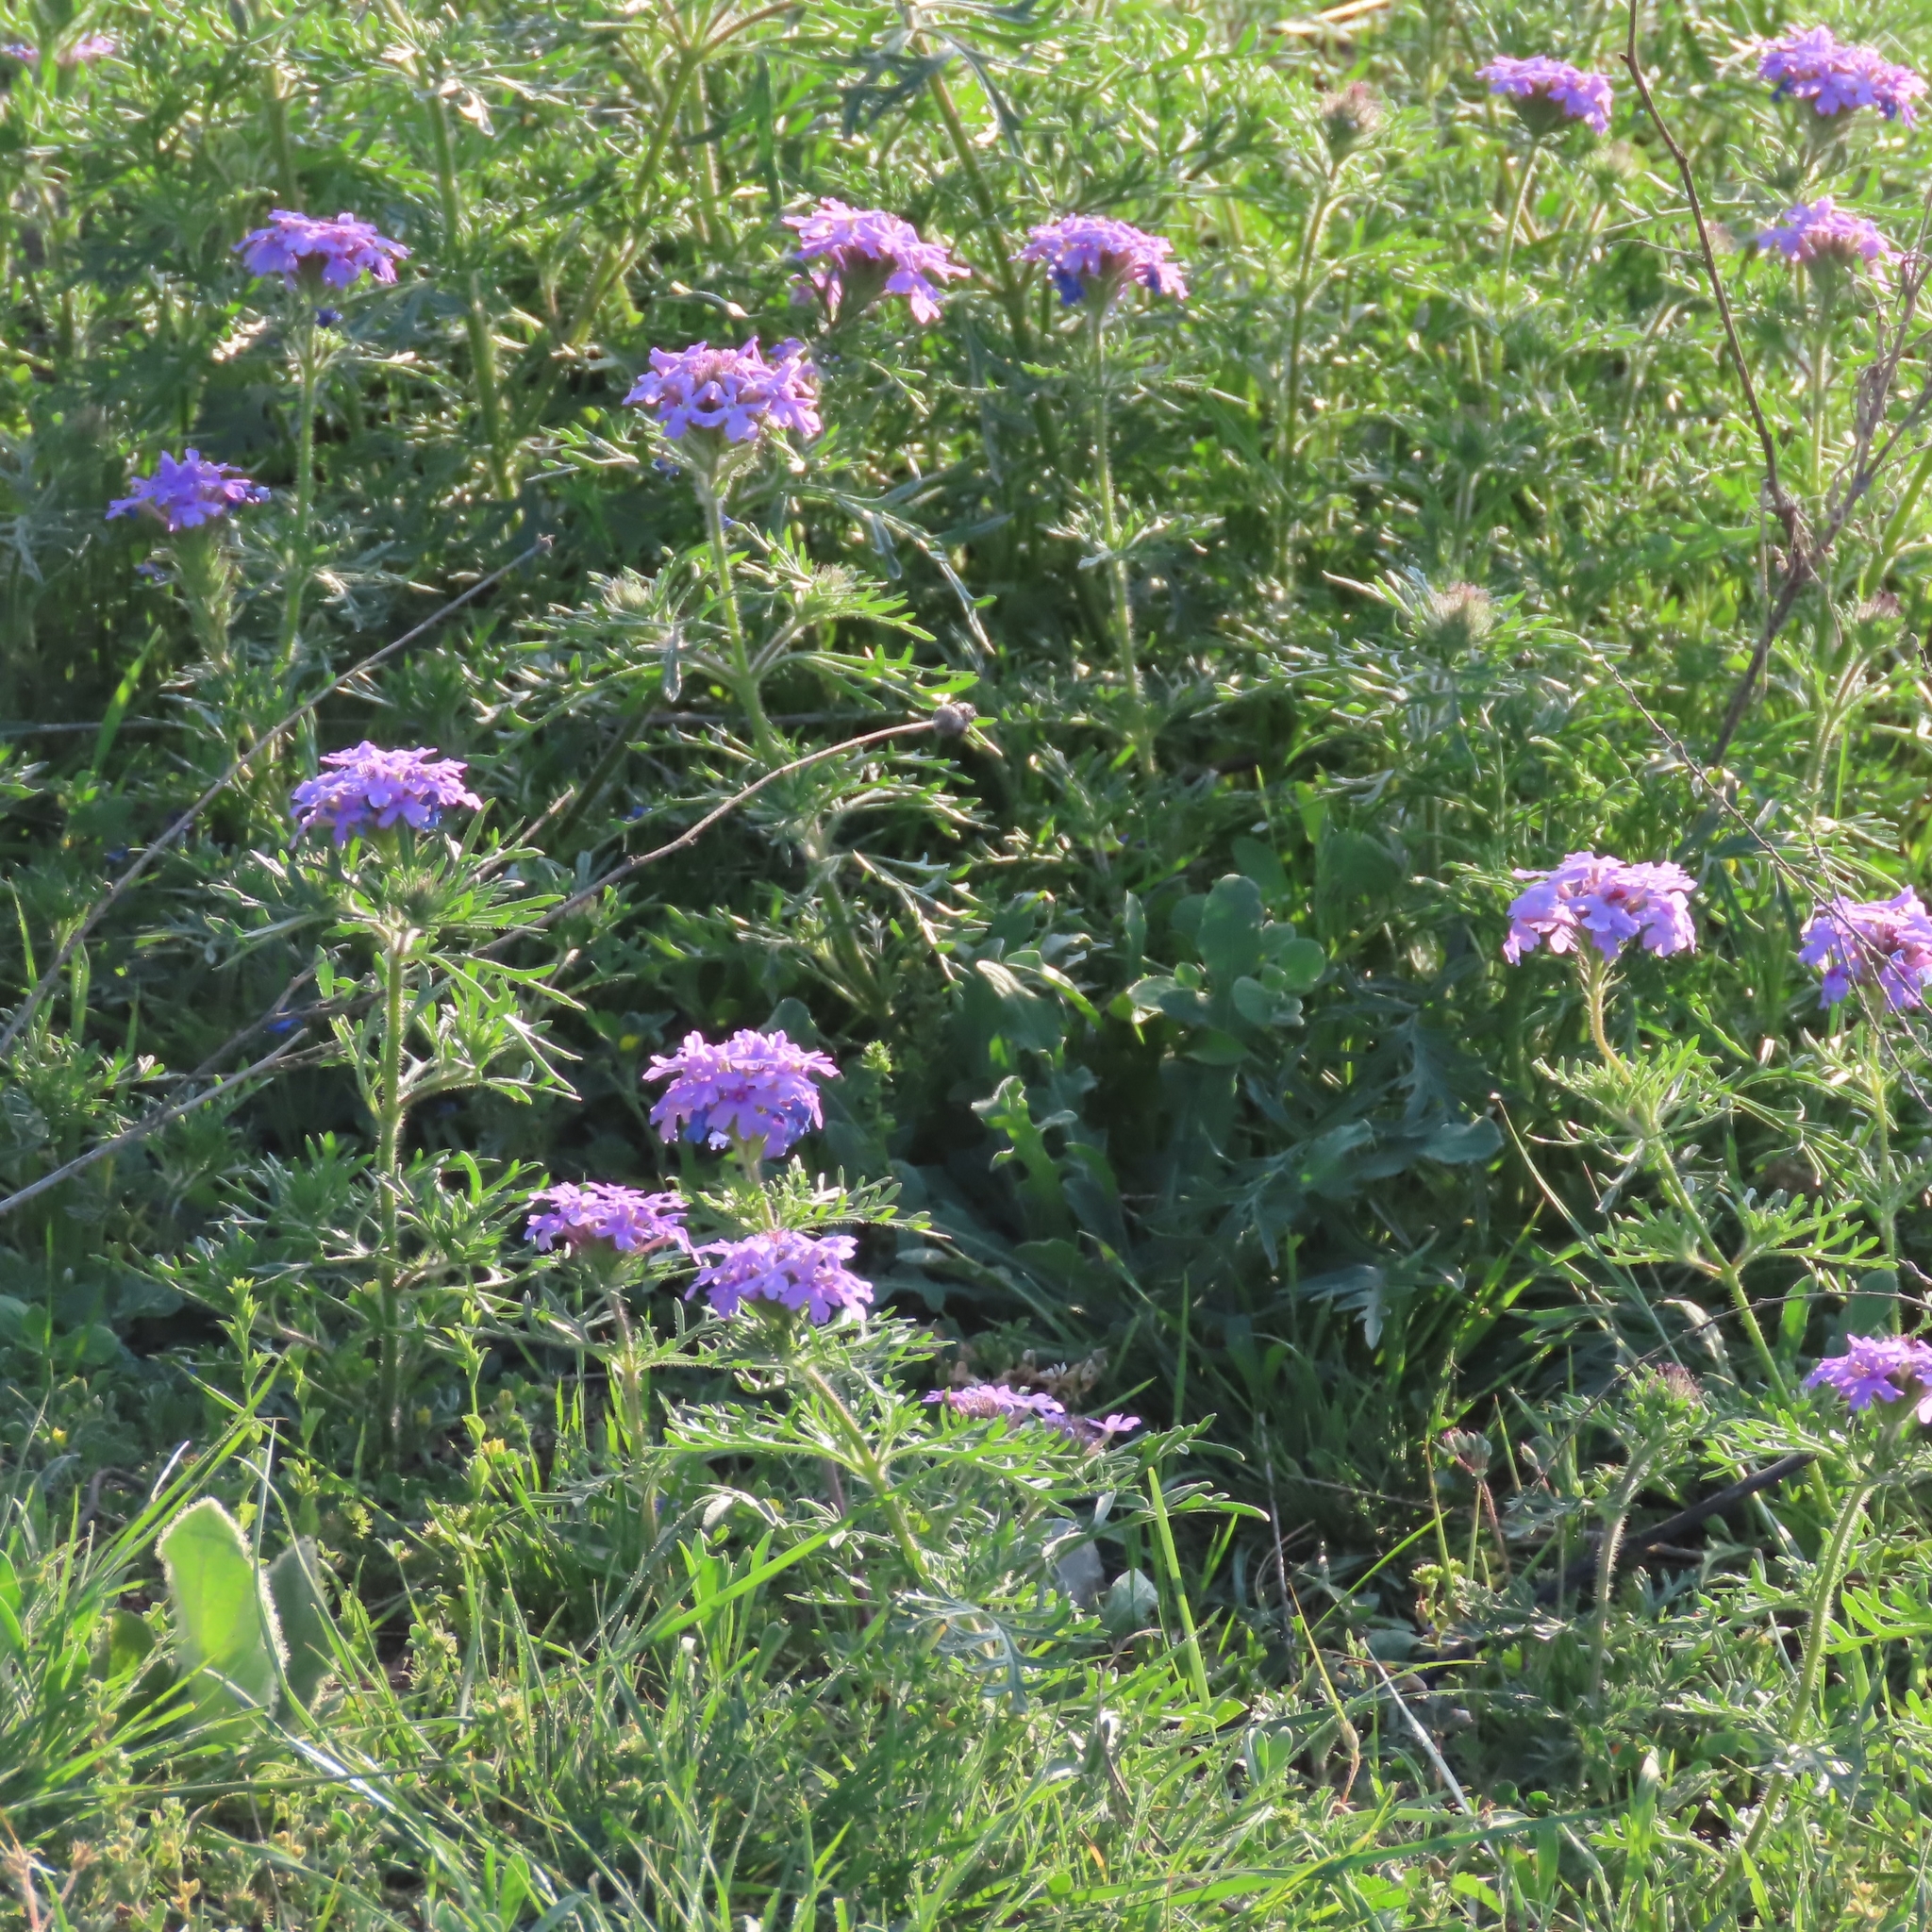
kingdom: Plantae
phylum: Tracheophyta
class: Magnoliopsida
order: Lamiales
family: Verbenaceae
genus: Verbena
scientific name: Verbena bipinnatifida
